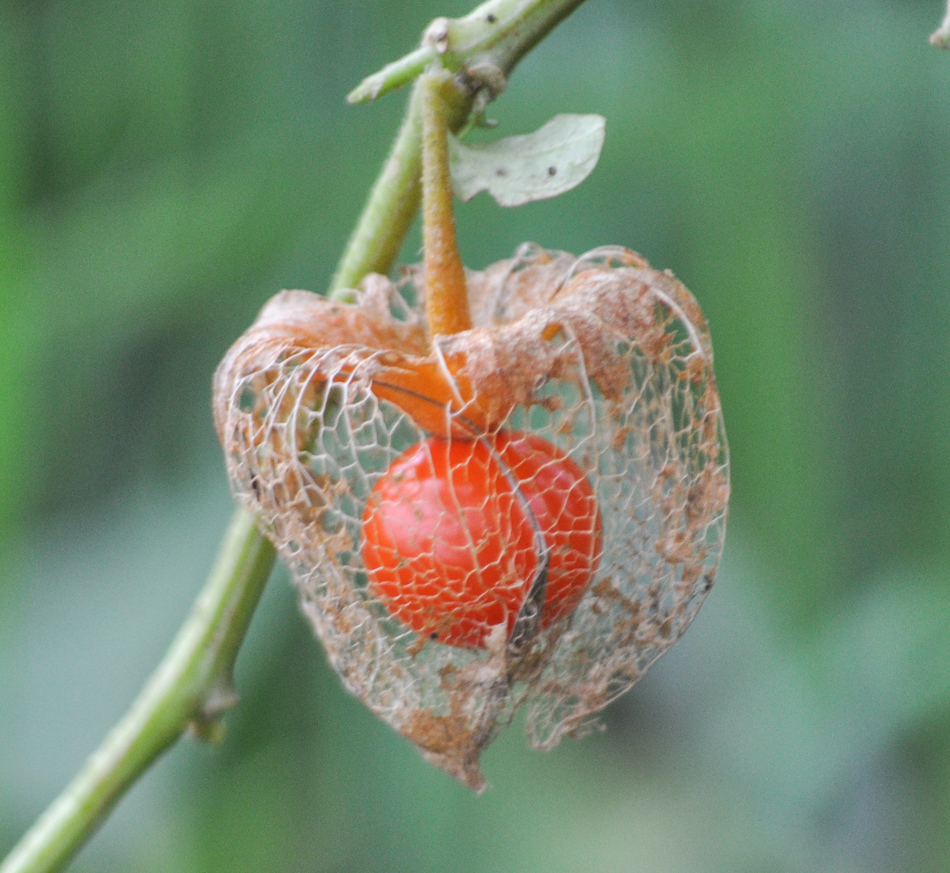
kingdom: Plantae
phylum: Tracheophyta
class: Magnoliopsida
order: Solanales
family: Solanaceae
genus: Alkekengi
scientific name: Alkekengi officinarum
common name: Japanese-lantern
